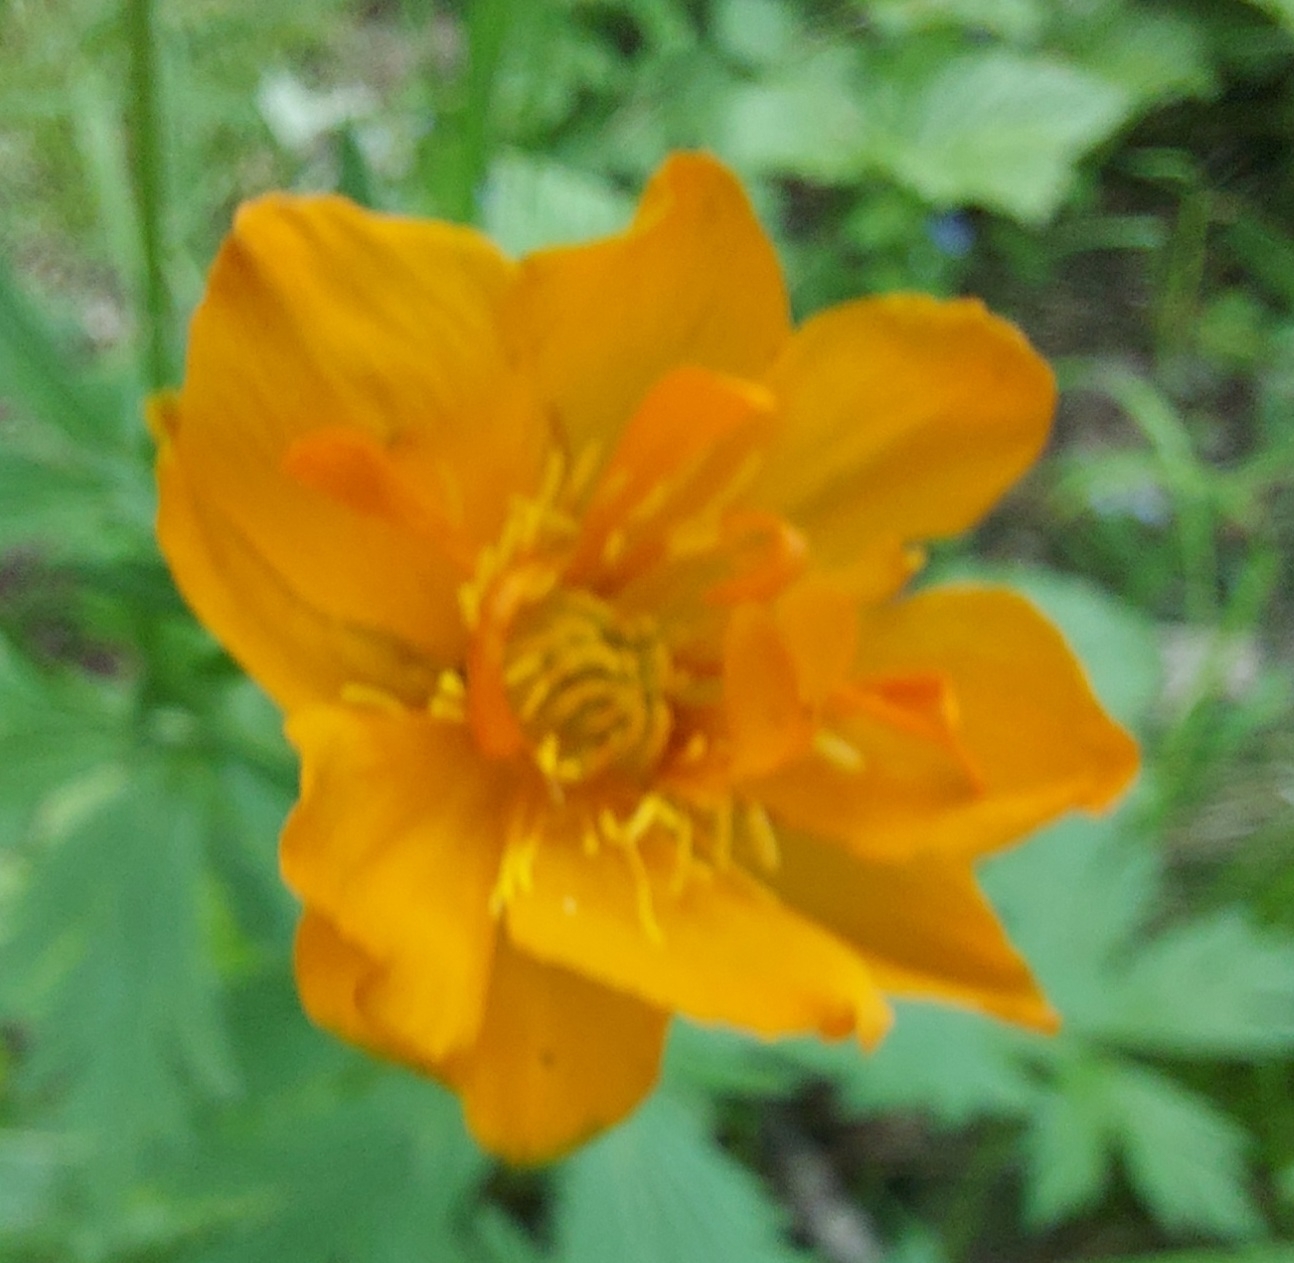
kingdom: Plantae
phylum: Tracheophyta
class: Magnoliopsida
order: Ranunculales
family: Ranunculaceae
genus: Trollius
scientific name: Trollius asiaticus
